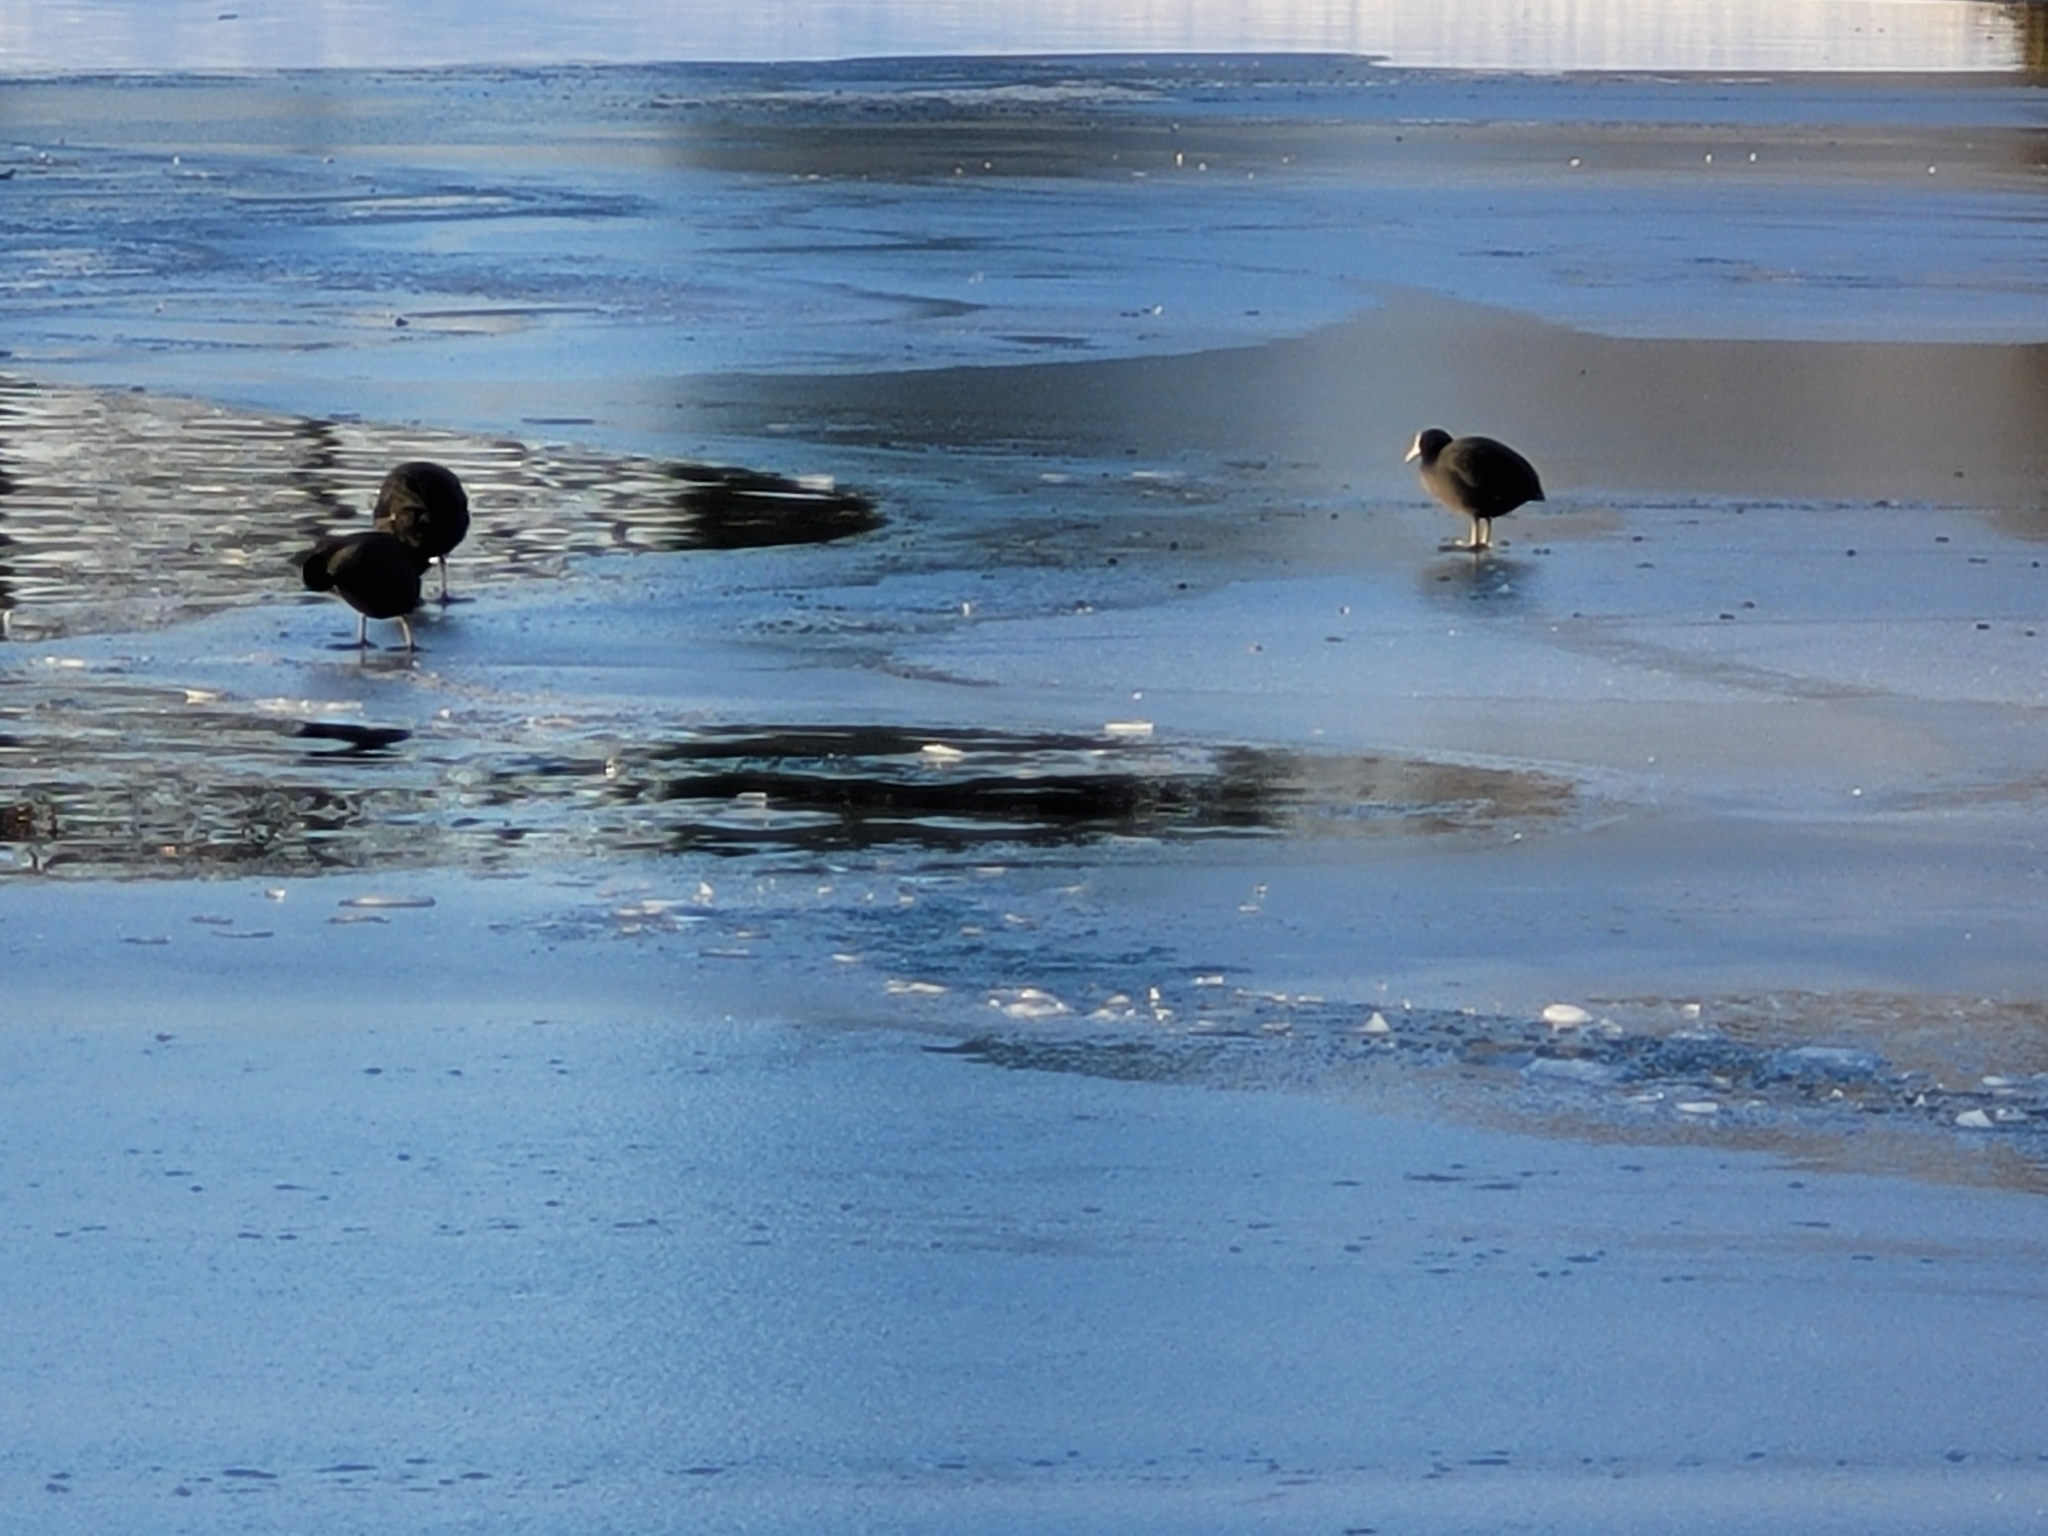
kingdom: Animalia
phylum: Chordata
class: Aves
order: Gruiformes
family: Rallidae
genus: Fulica
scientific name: Fulica atra
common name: Eurasian coot
